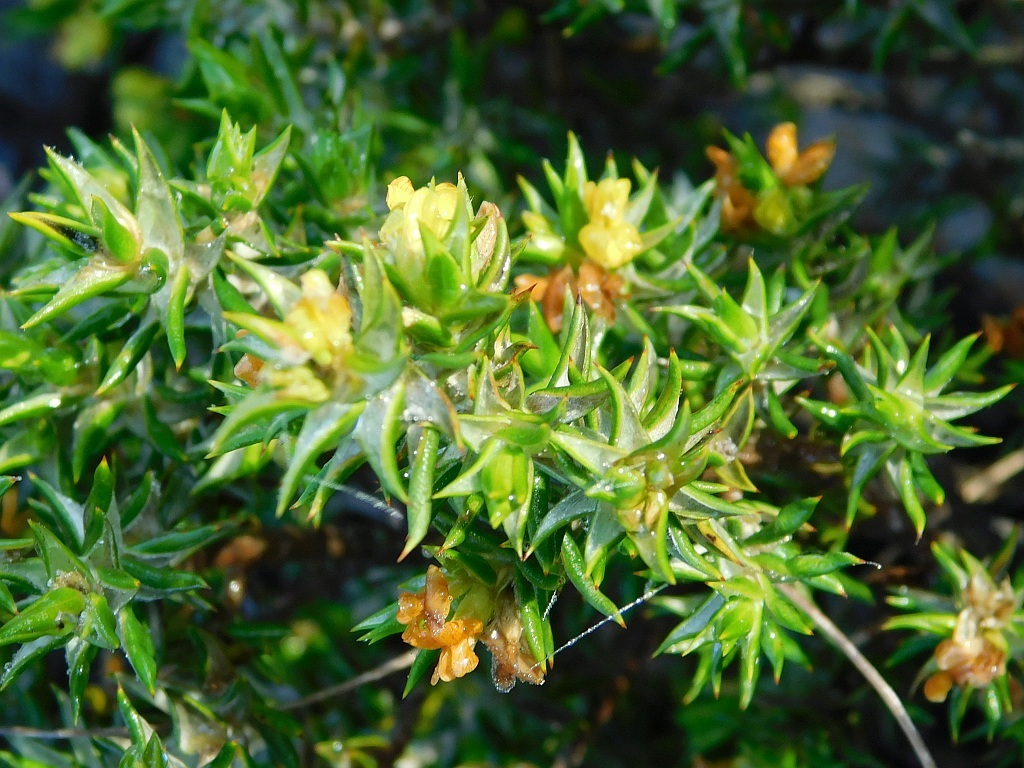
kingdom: Plantae
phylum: Tracheophyta
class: Magnoliopsida
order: Fabales
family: Fabaceae
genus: Amphithalea
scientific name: Amphithalea bowiei
